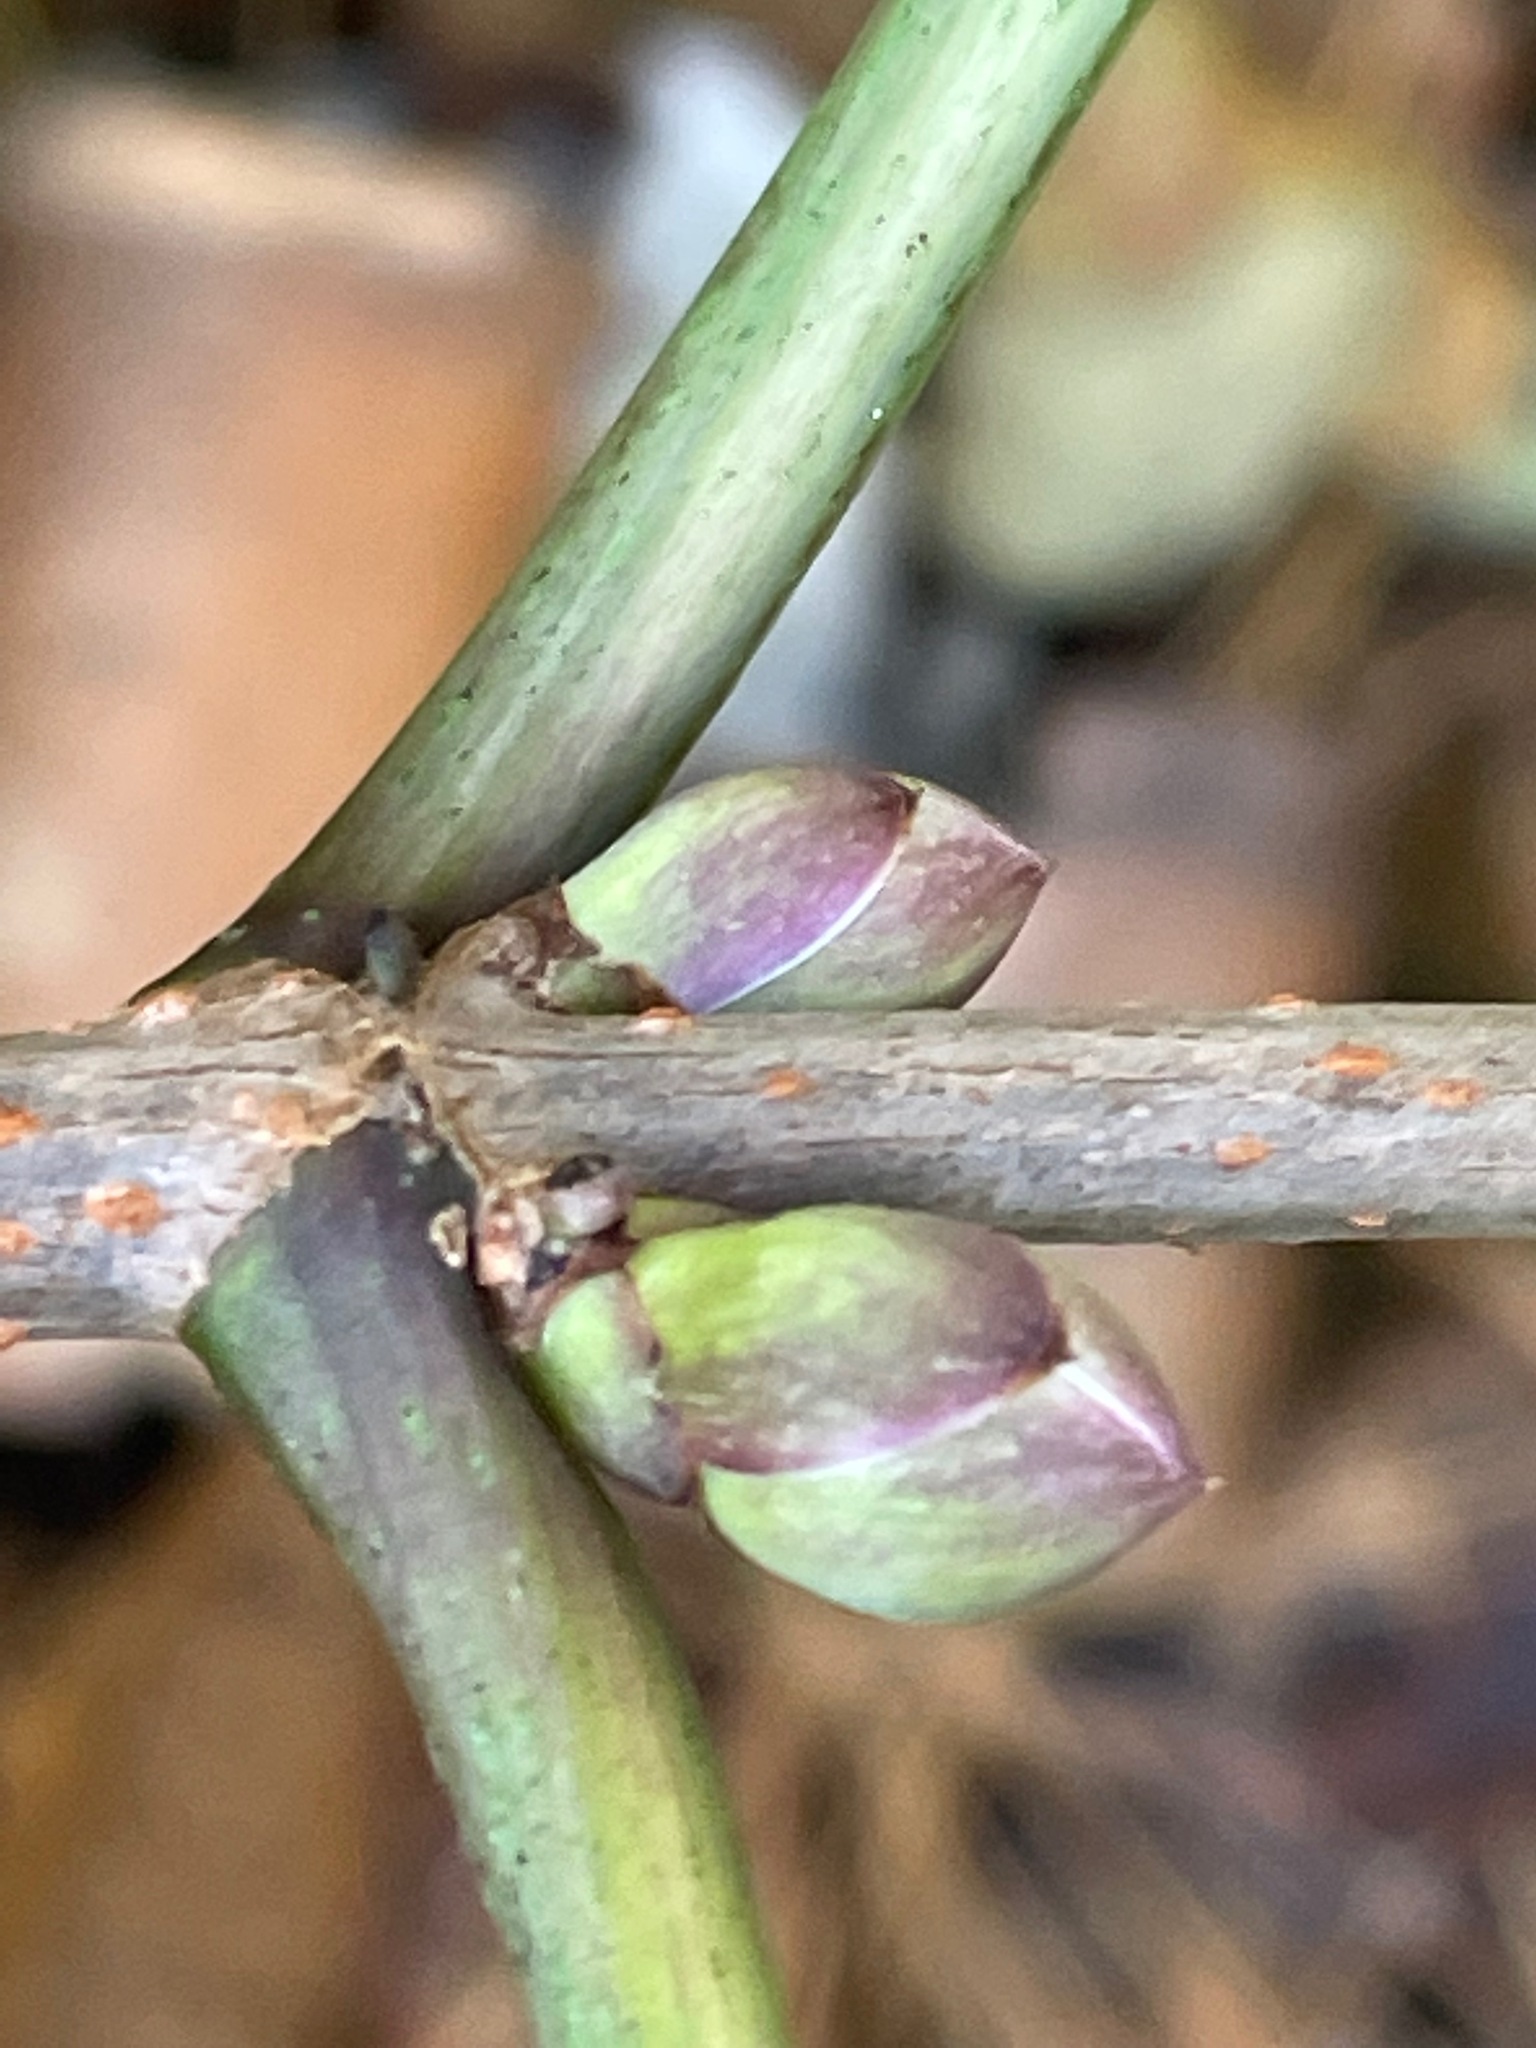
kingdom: Plantae
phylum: Tracheophyta
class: Magnoliopsida
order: Dipsacales
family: Viburnaceae
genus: Sambucus
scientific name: Sambucus racemosa
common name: Red-berried elder
